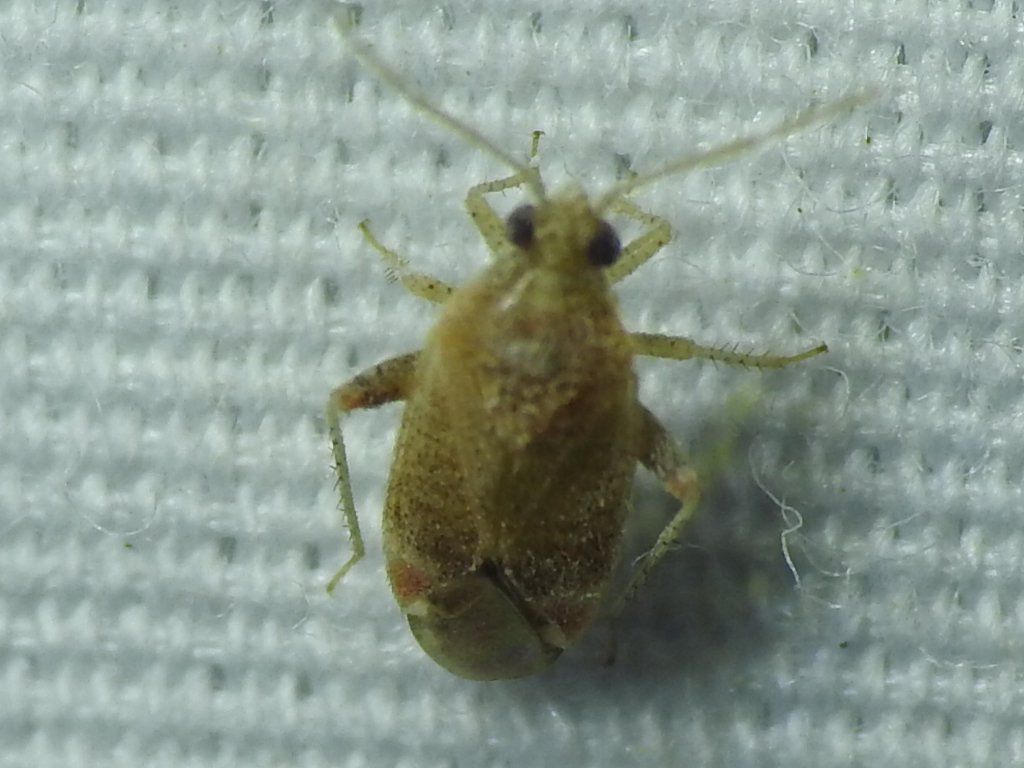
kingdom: Animalia
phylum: Arthropoda
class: Insecta
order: Hemiptera
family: Miridae
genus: Hamatophylus
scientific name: Hamatophylus guttulosus
